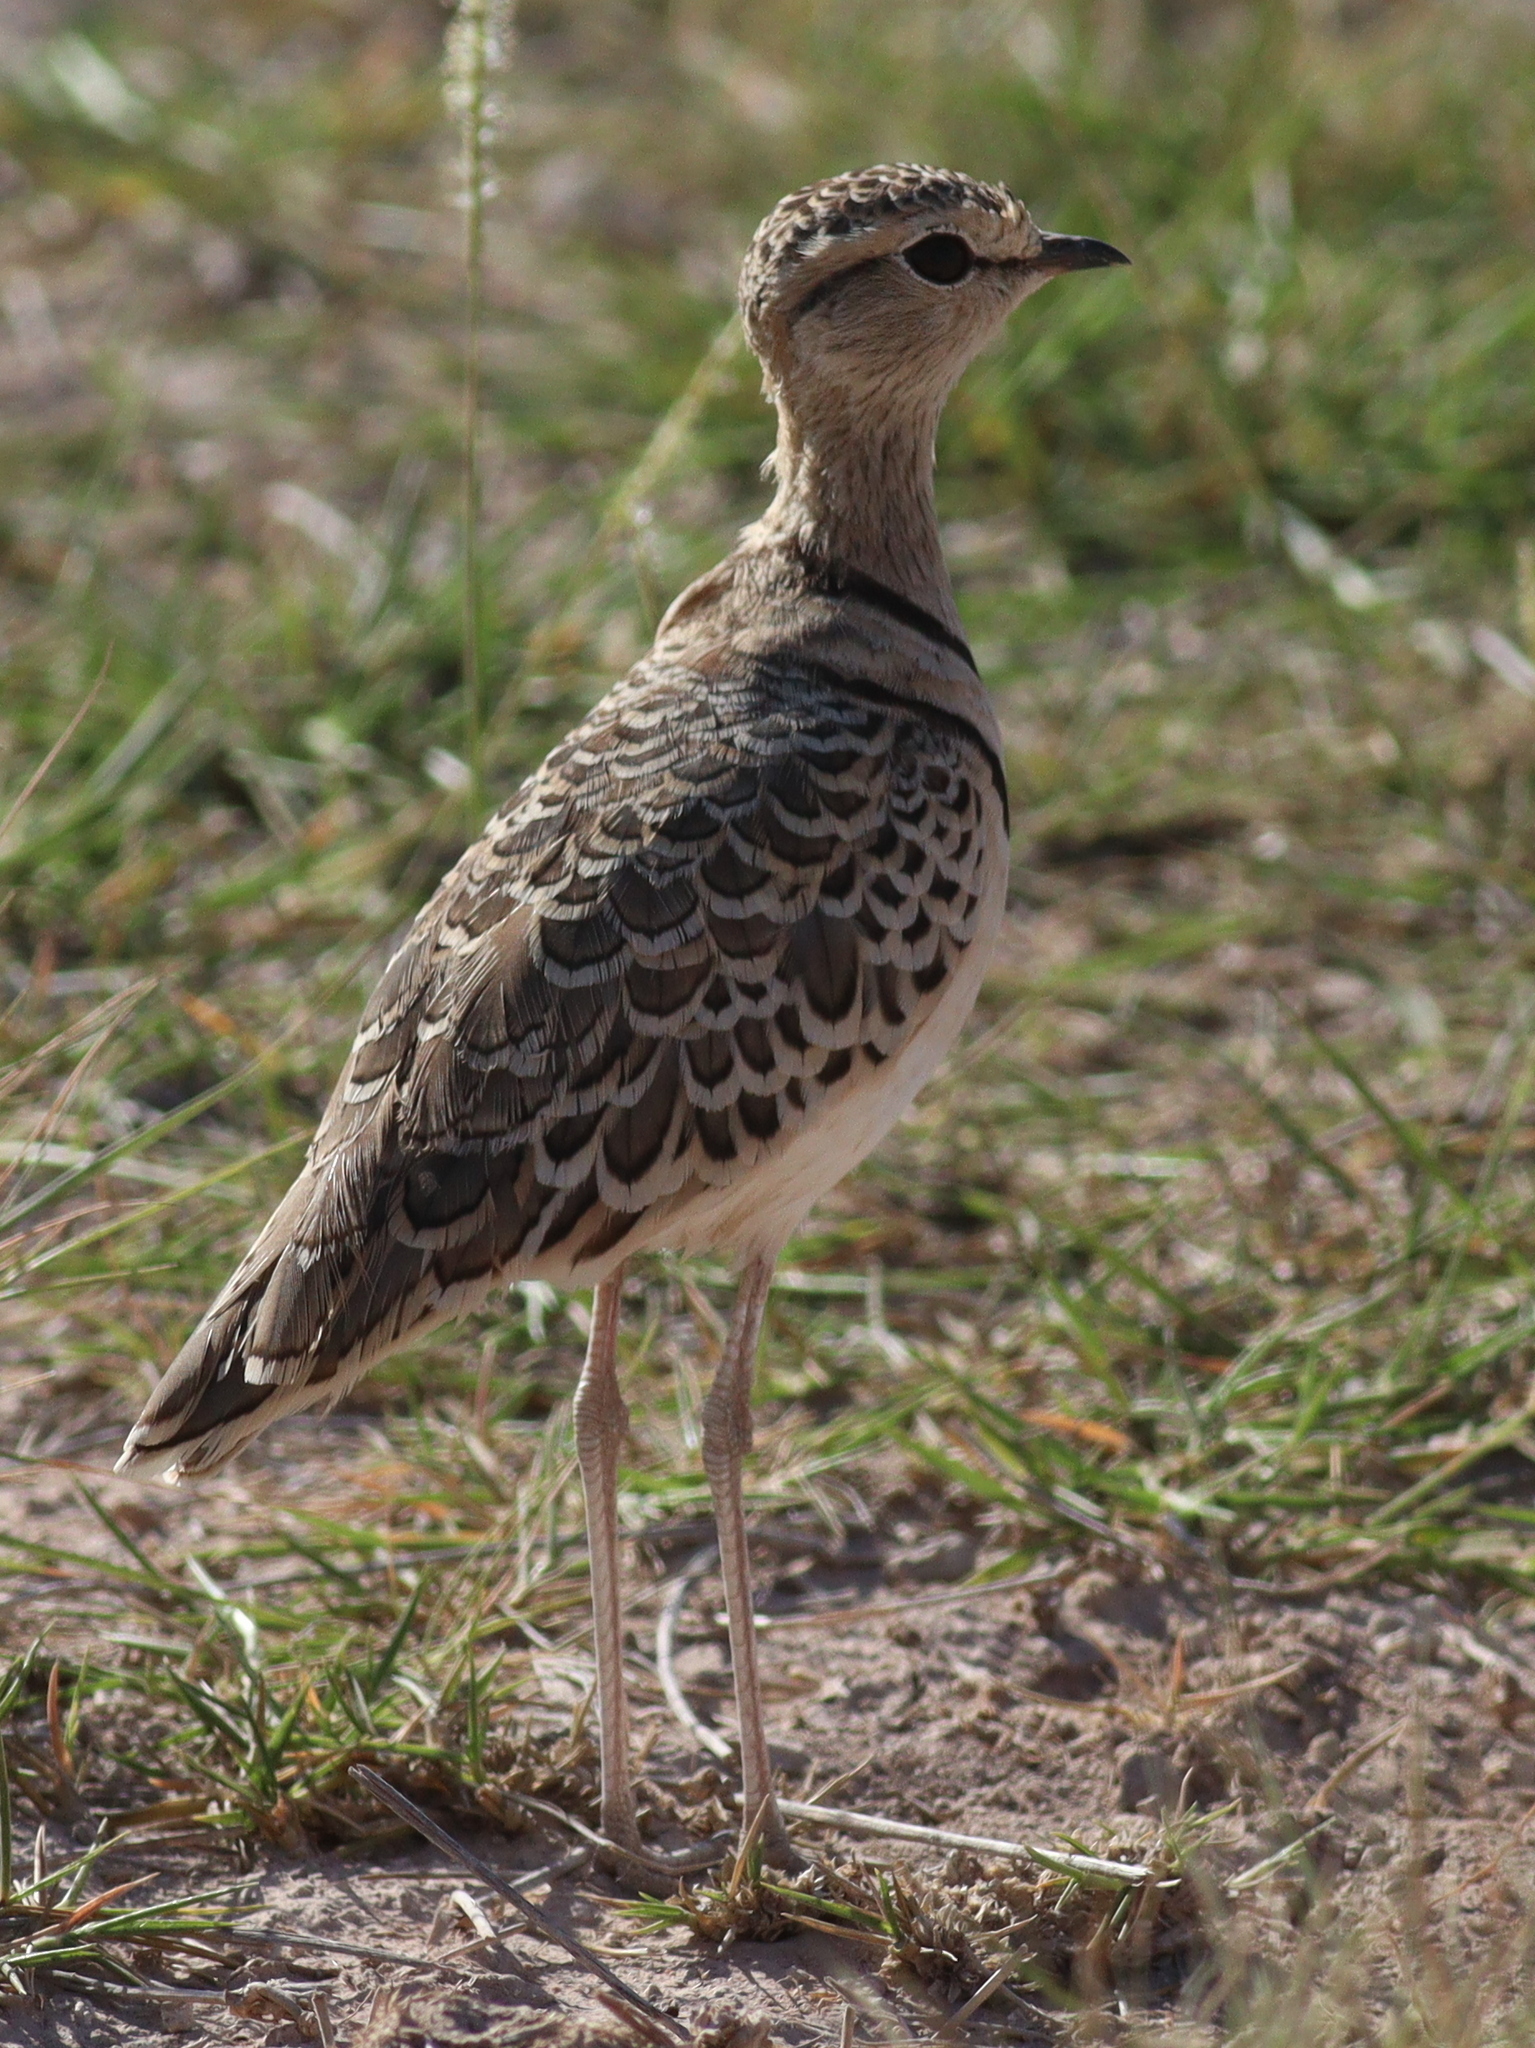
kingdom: Animalia
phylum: Chordata
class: Aves
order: Charadriiformes
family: Glareolidae
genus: Rhinoptilus
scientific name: Rhinoptilus africanus
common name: Double-banded courser
